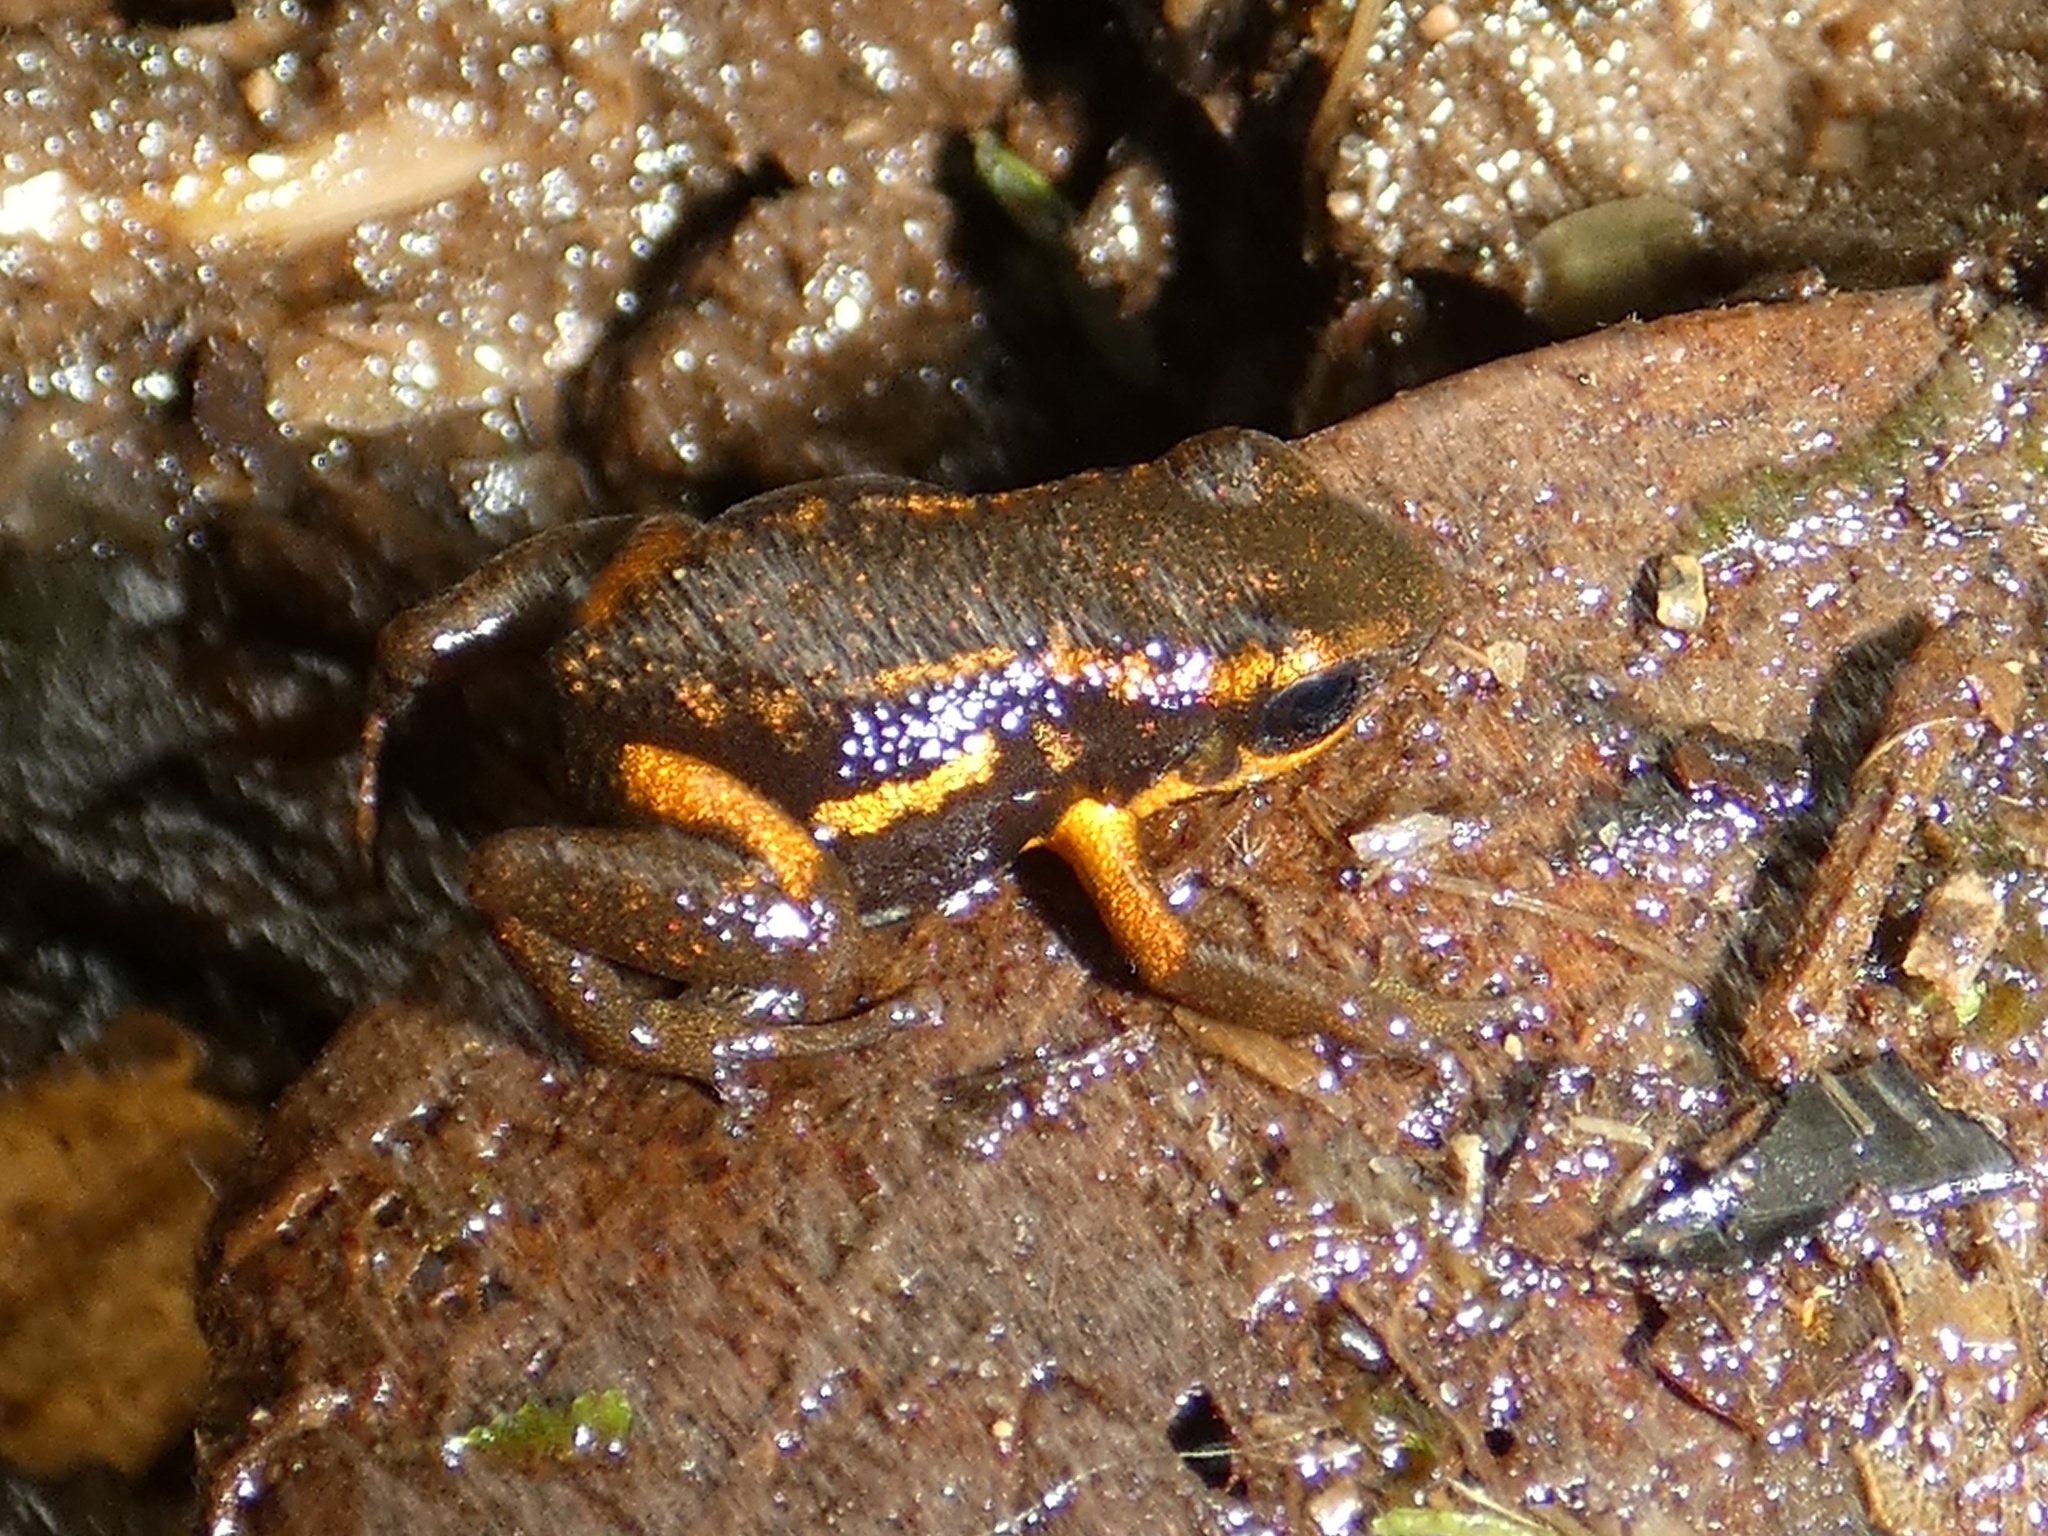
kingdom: Animalia
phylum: Chordata
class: Amphibia
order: Anura
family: Dendrobatidae
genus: Andinobates
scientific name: Andinobates minutus
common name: Blue-bellied poison frog
